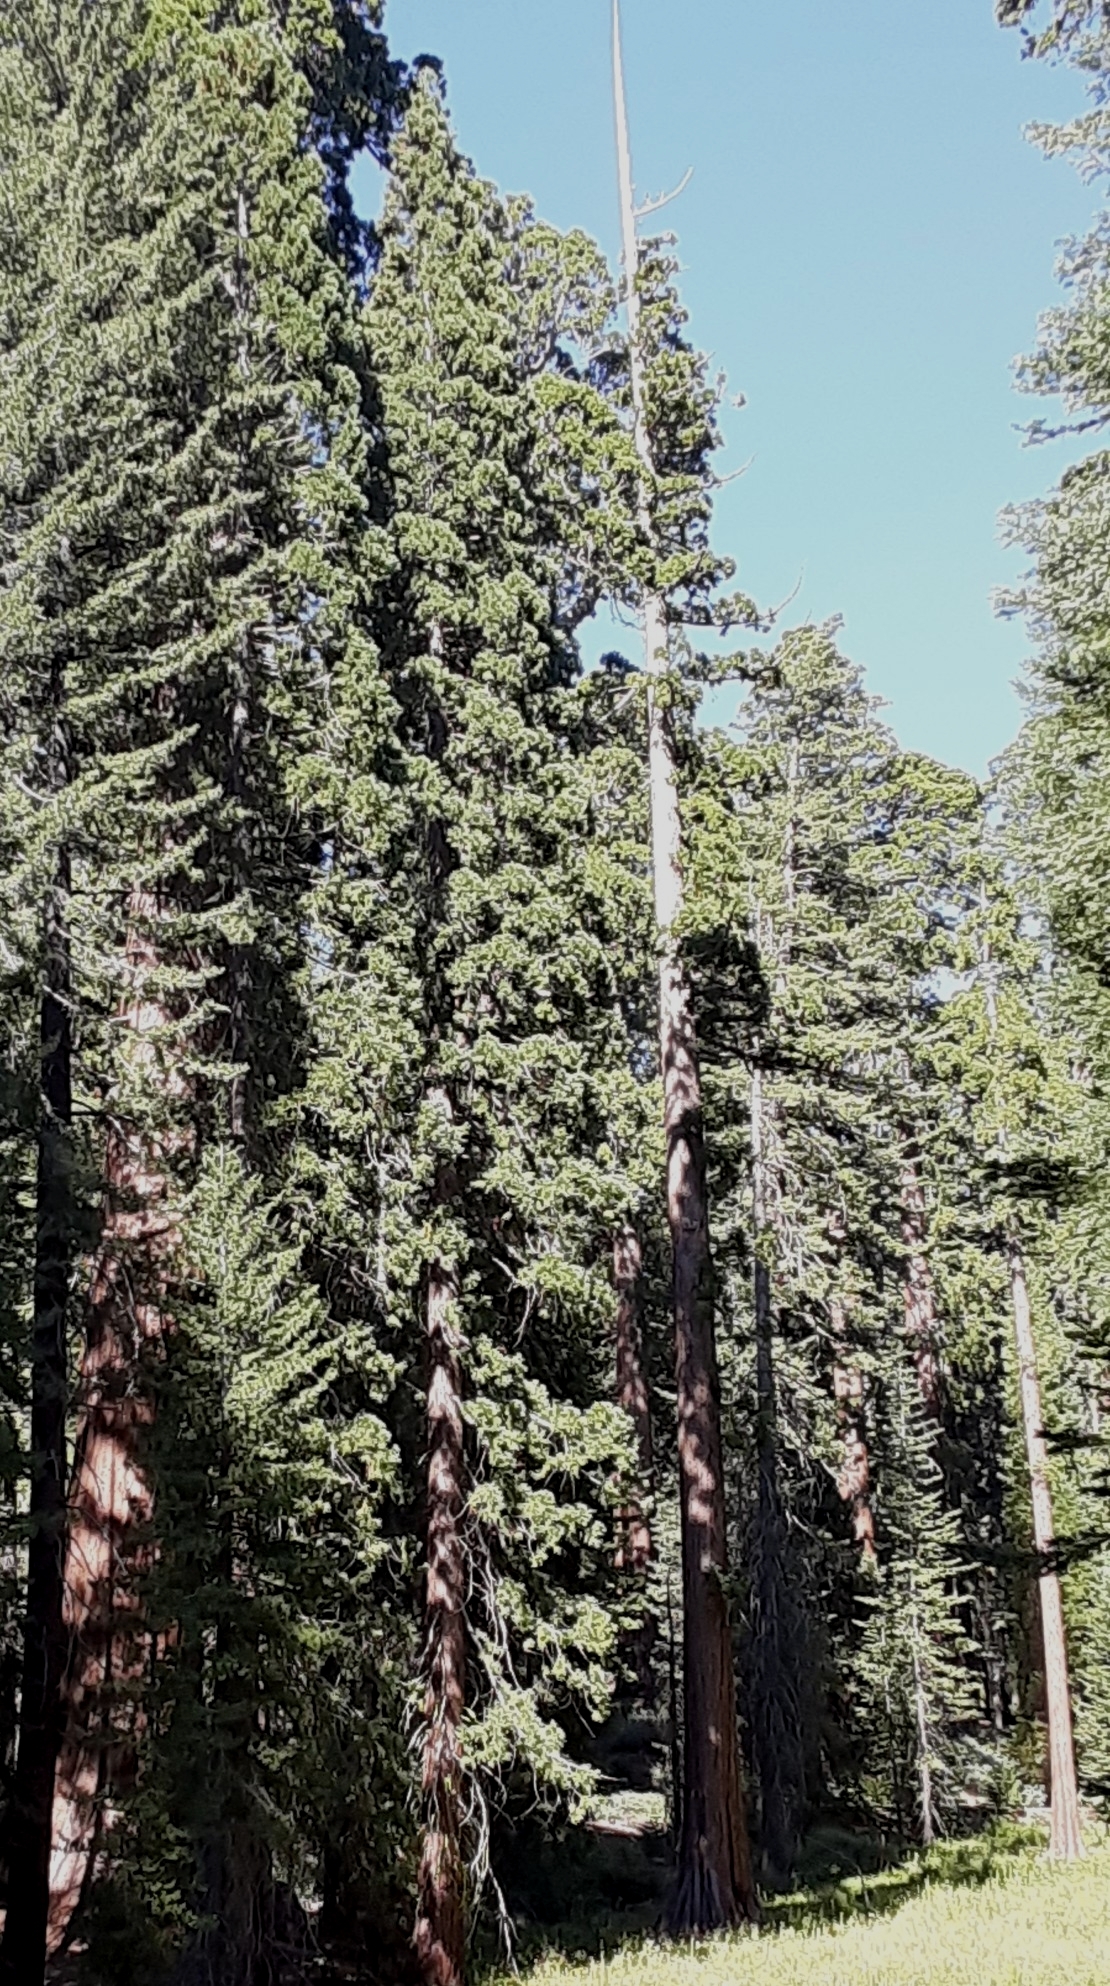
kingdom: Plantae
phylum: Tracheophyta
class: Pinopsida
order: Pinales
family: Cupressaceae
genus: Sequoiadendron
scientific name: Sequoiadendron giganteum
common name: Wellingtonia
